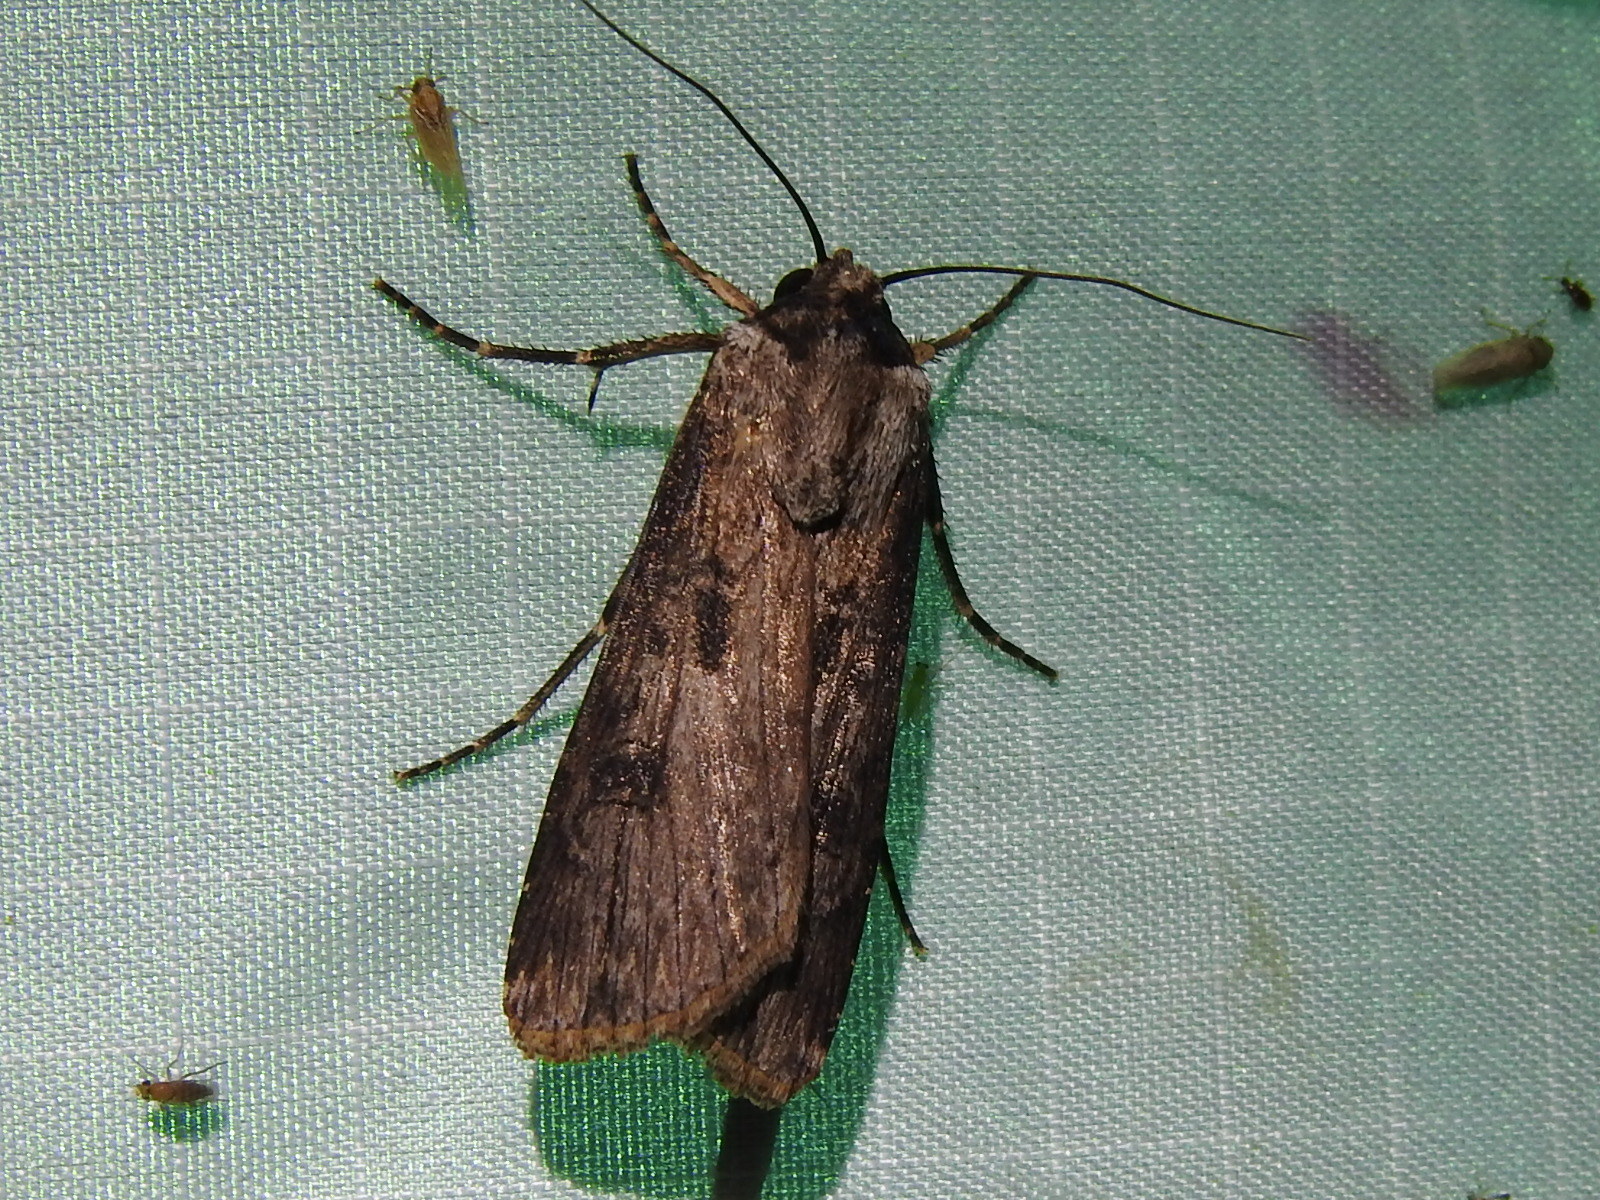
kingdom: Animalia
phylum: Arthropoda
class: Insecta
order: Lepidoptera
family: Noctuidae
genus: Agrotis
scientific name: Agrotis malefida
